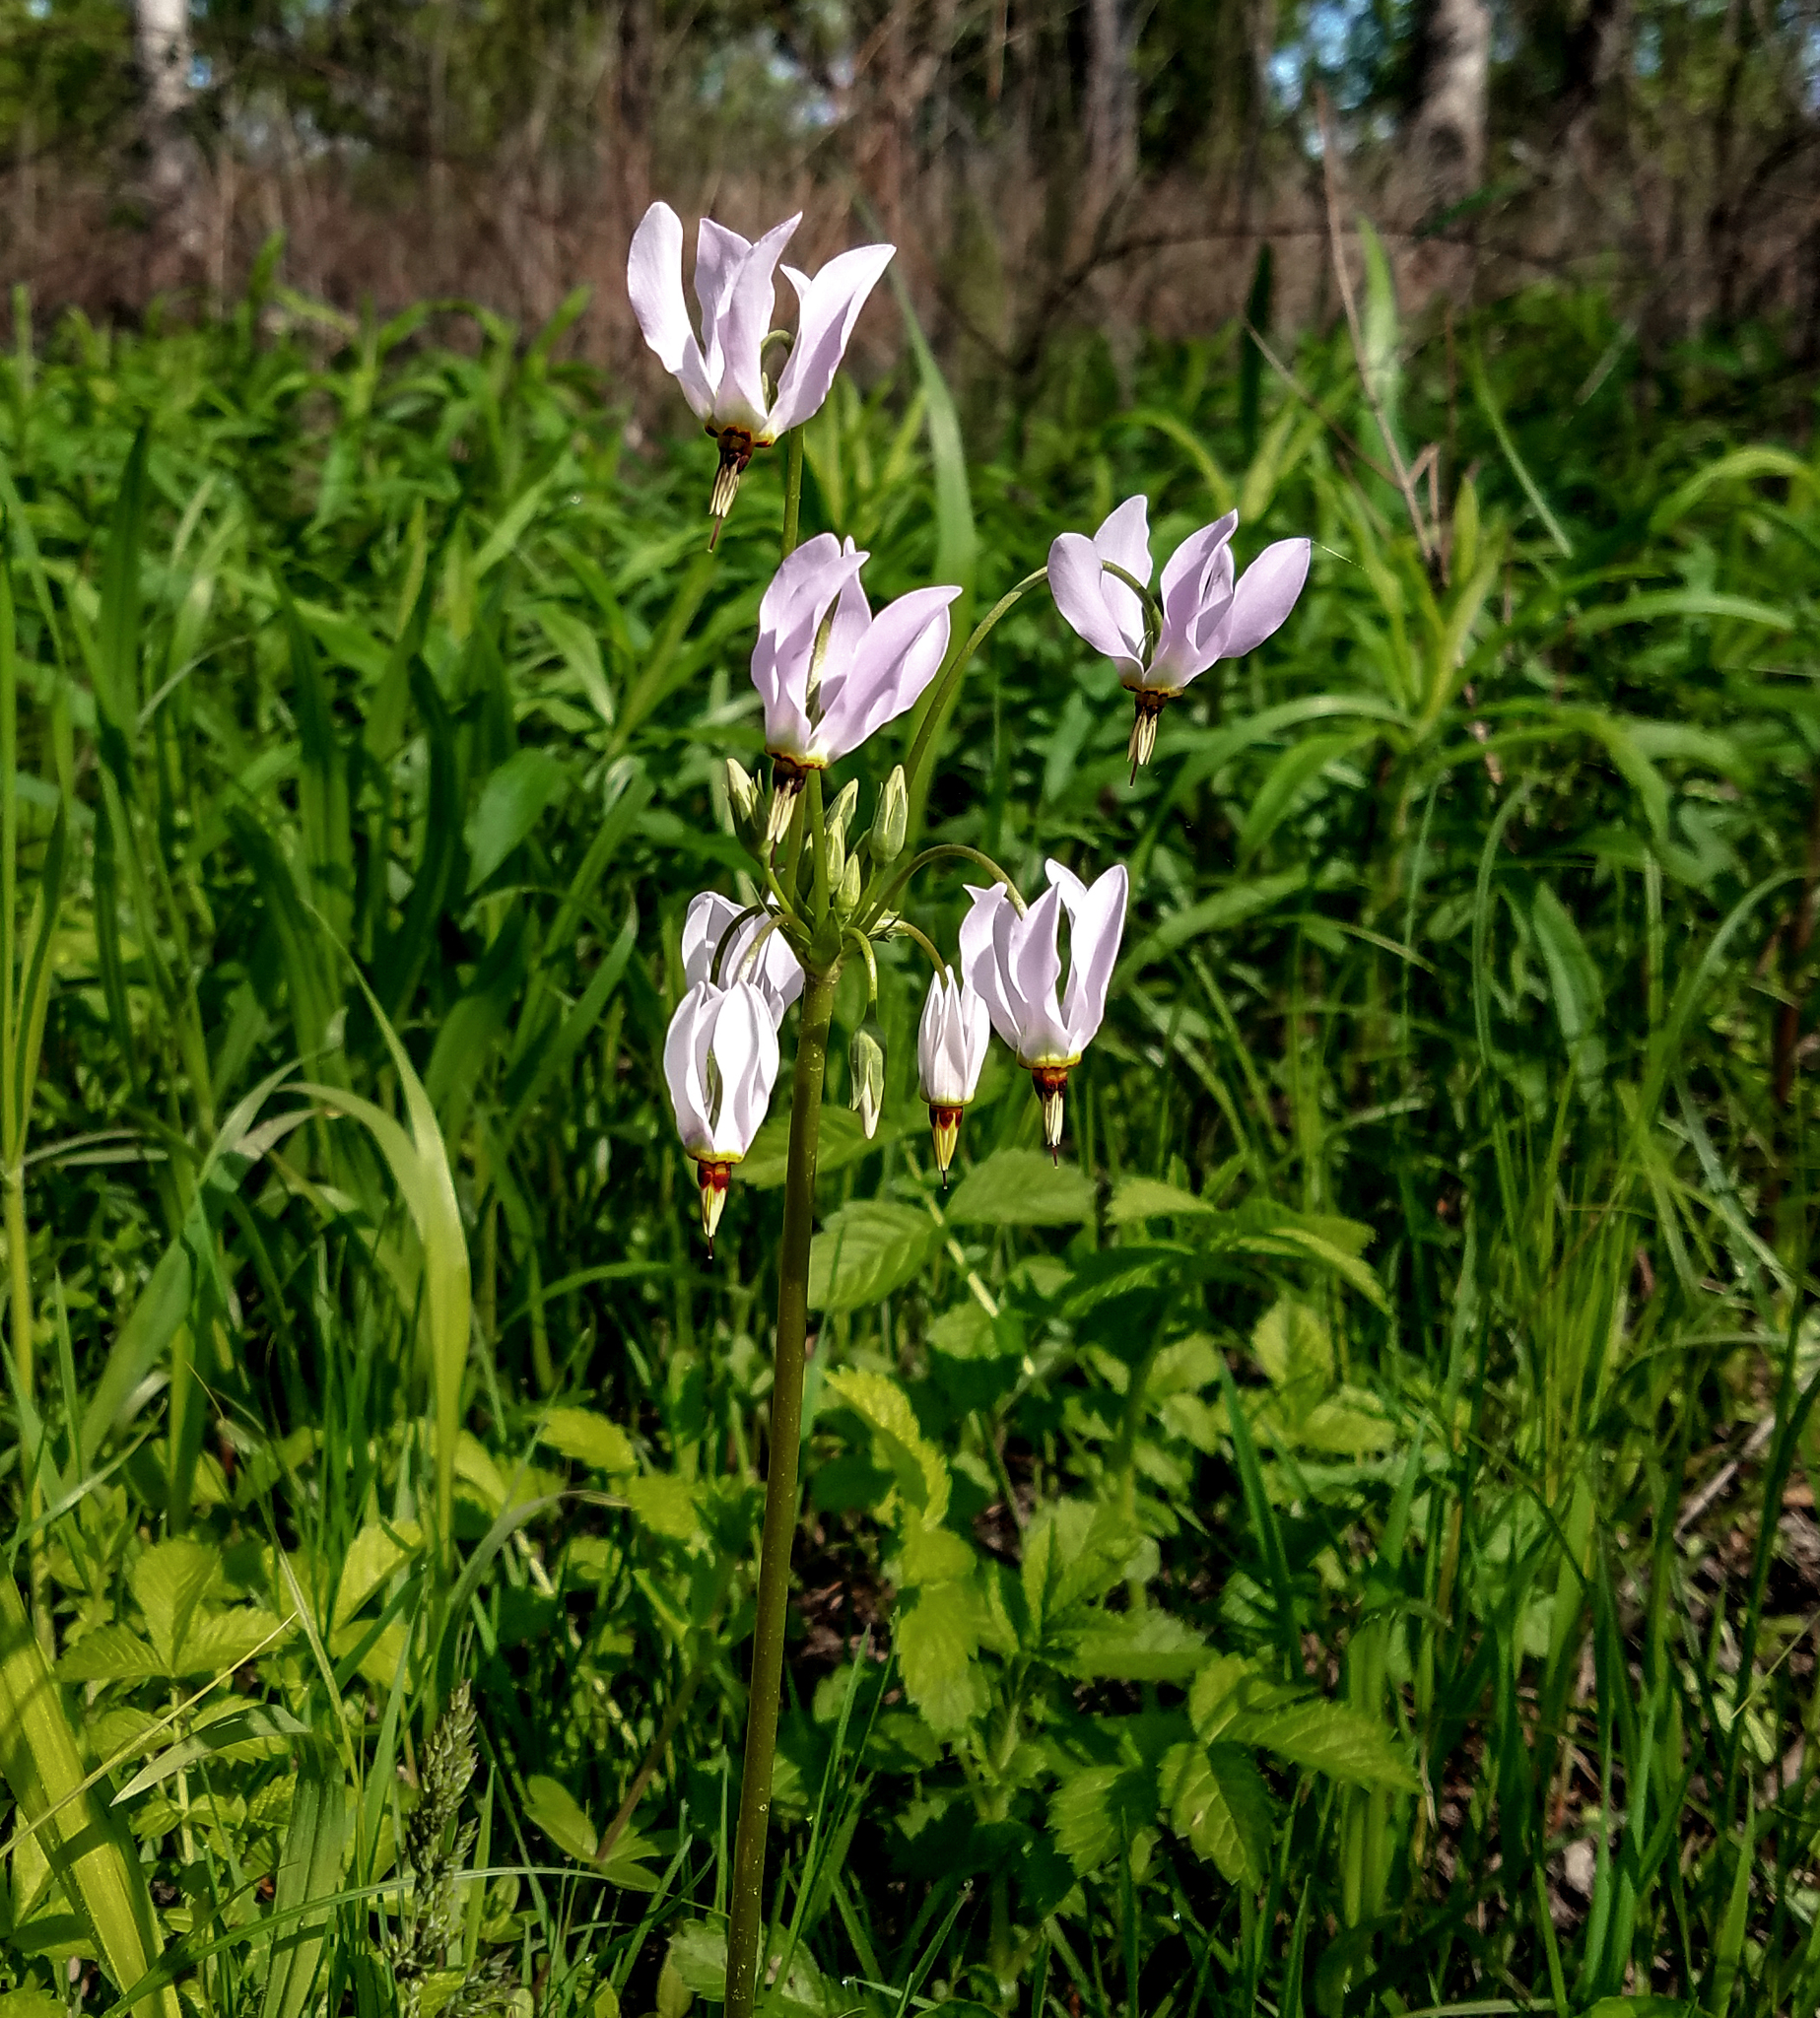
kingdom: Plantae
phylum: Tracheophyta
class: Magnoliopsida
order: Ericales
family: Primulaceae
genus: Dodecatheon
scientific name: Dodecatheon meadia
